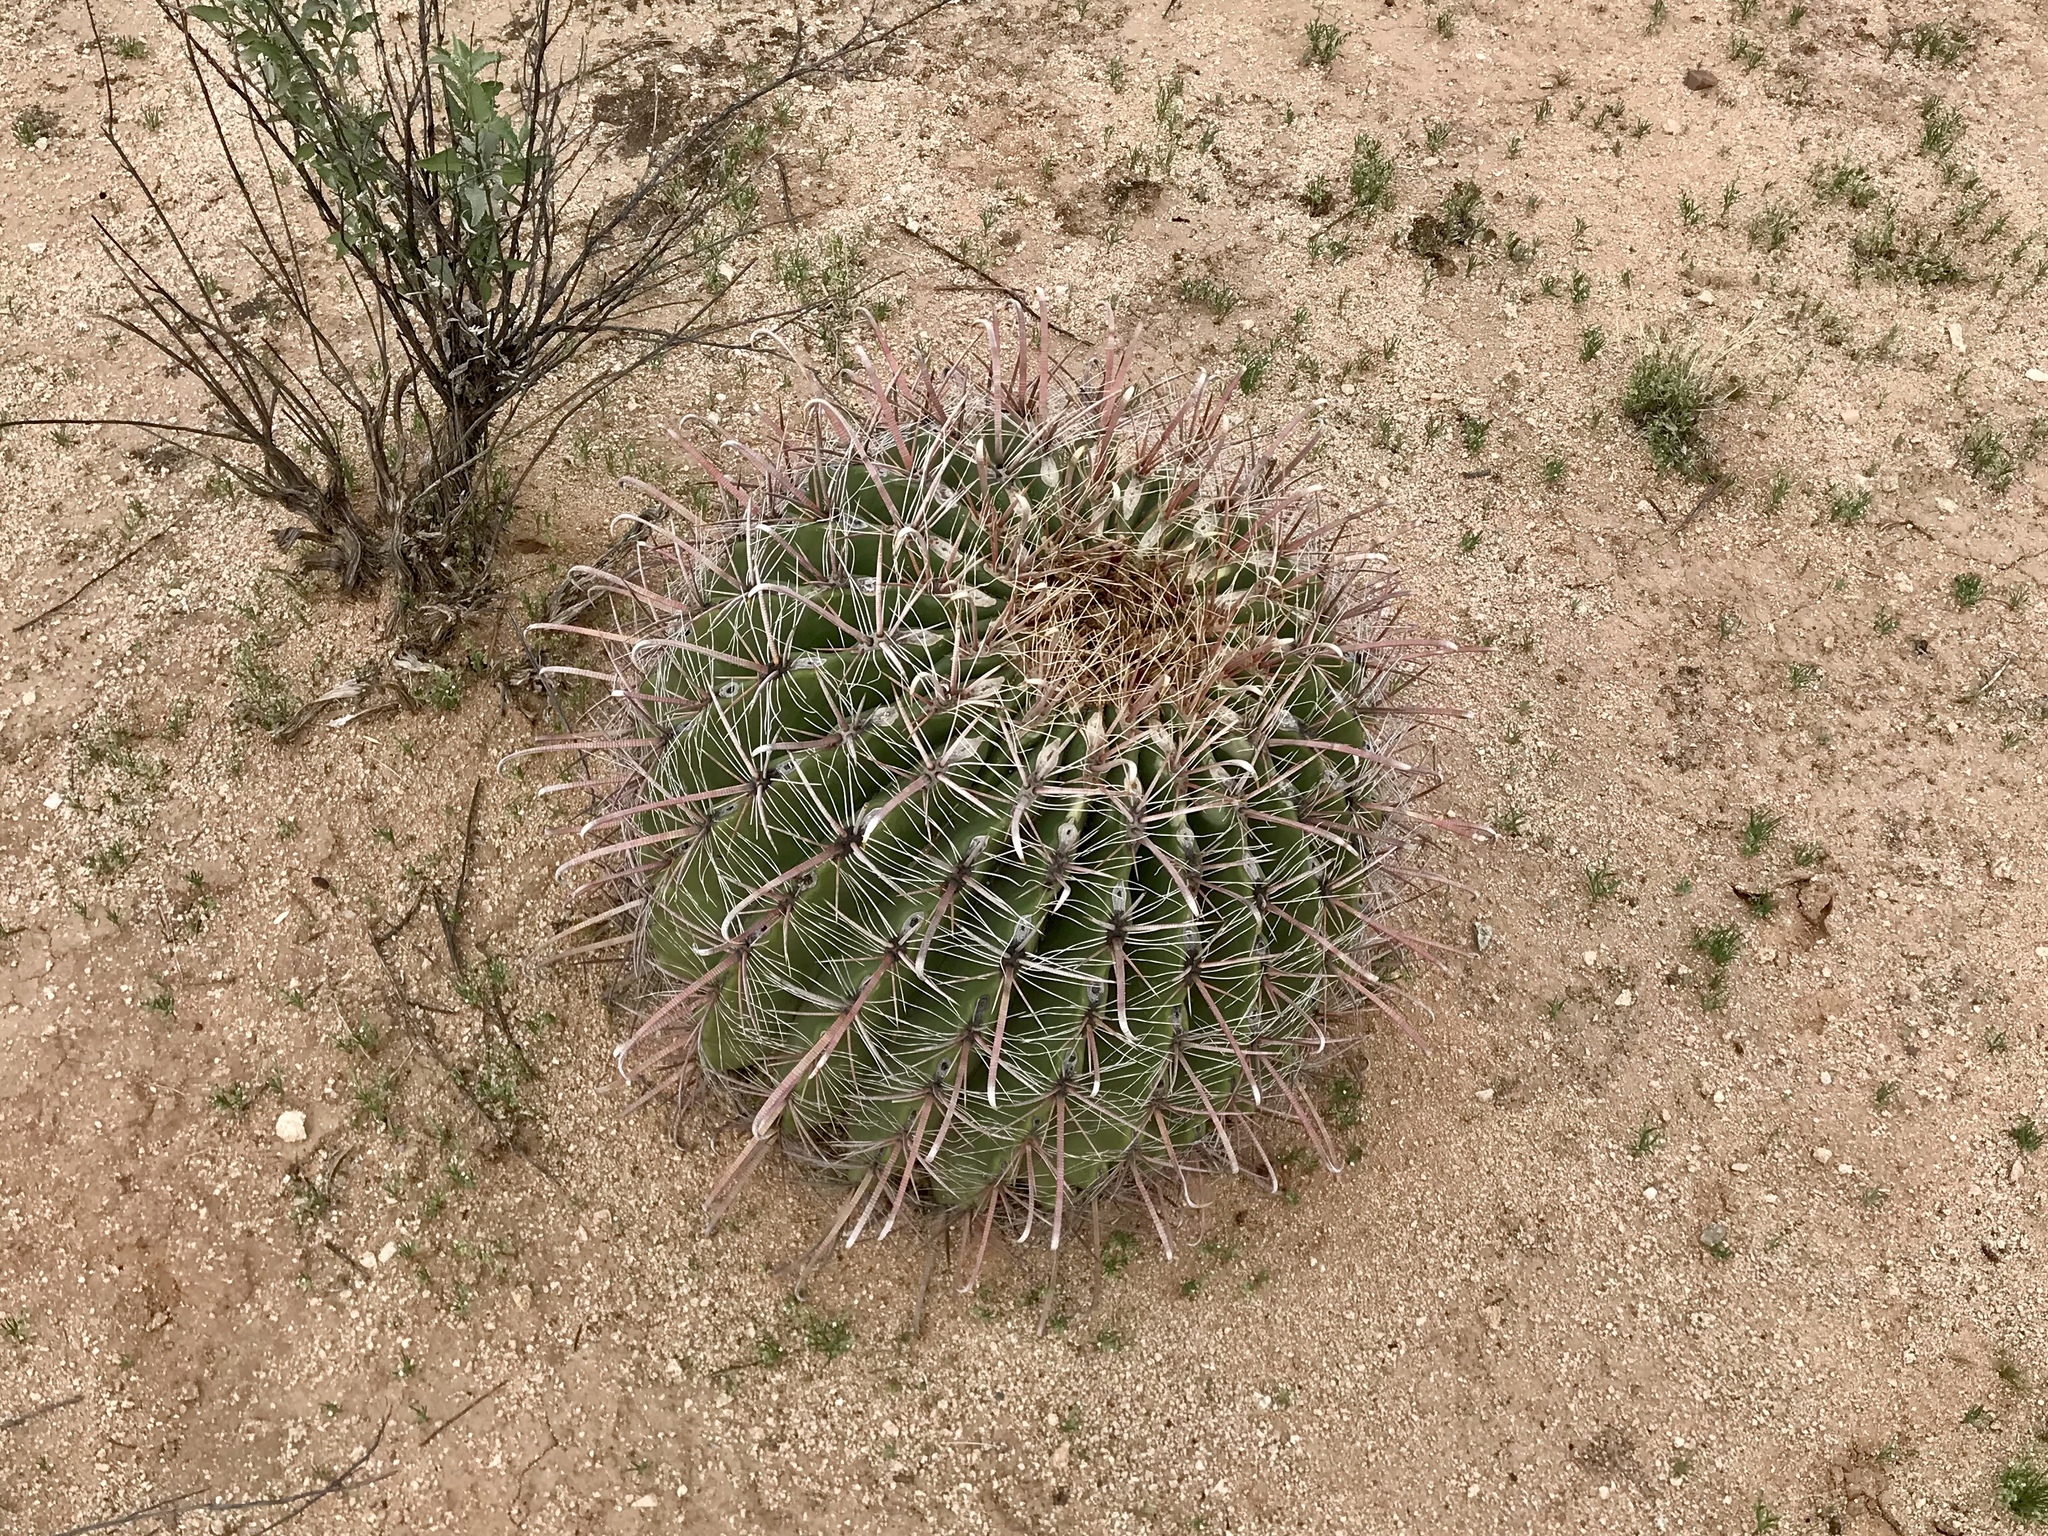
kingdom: Plantae
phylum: Tracheophyta
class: Magnoliopsida
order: Caryophyllales
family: Cactaceae
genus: Ferocactus
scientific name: Ferocactus wislizeni
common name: Candy barrel cactus
